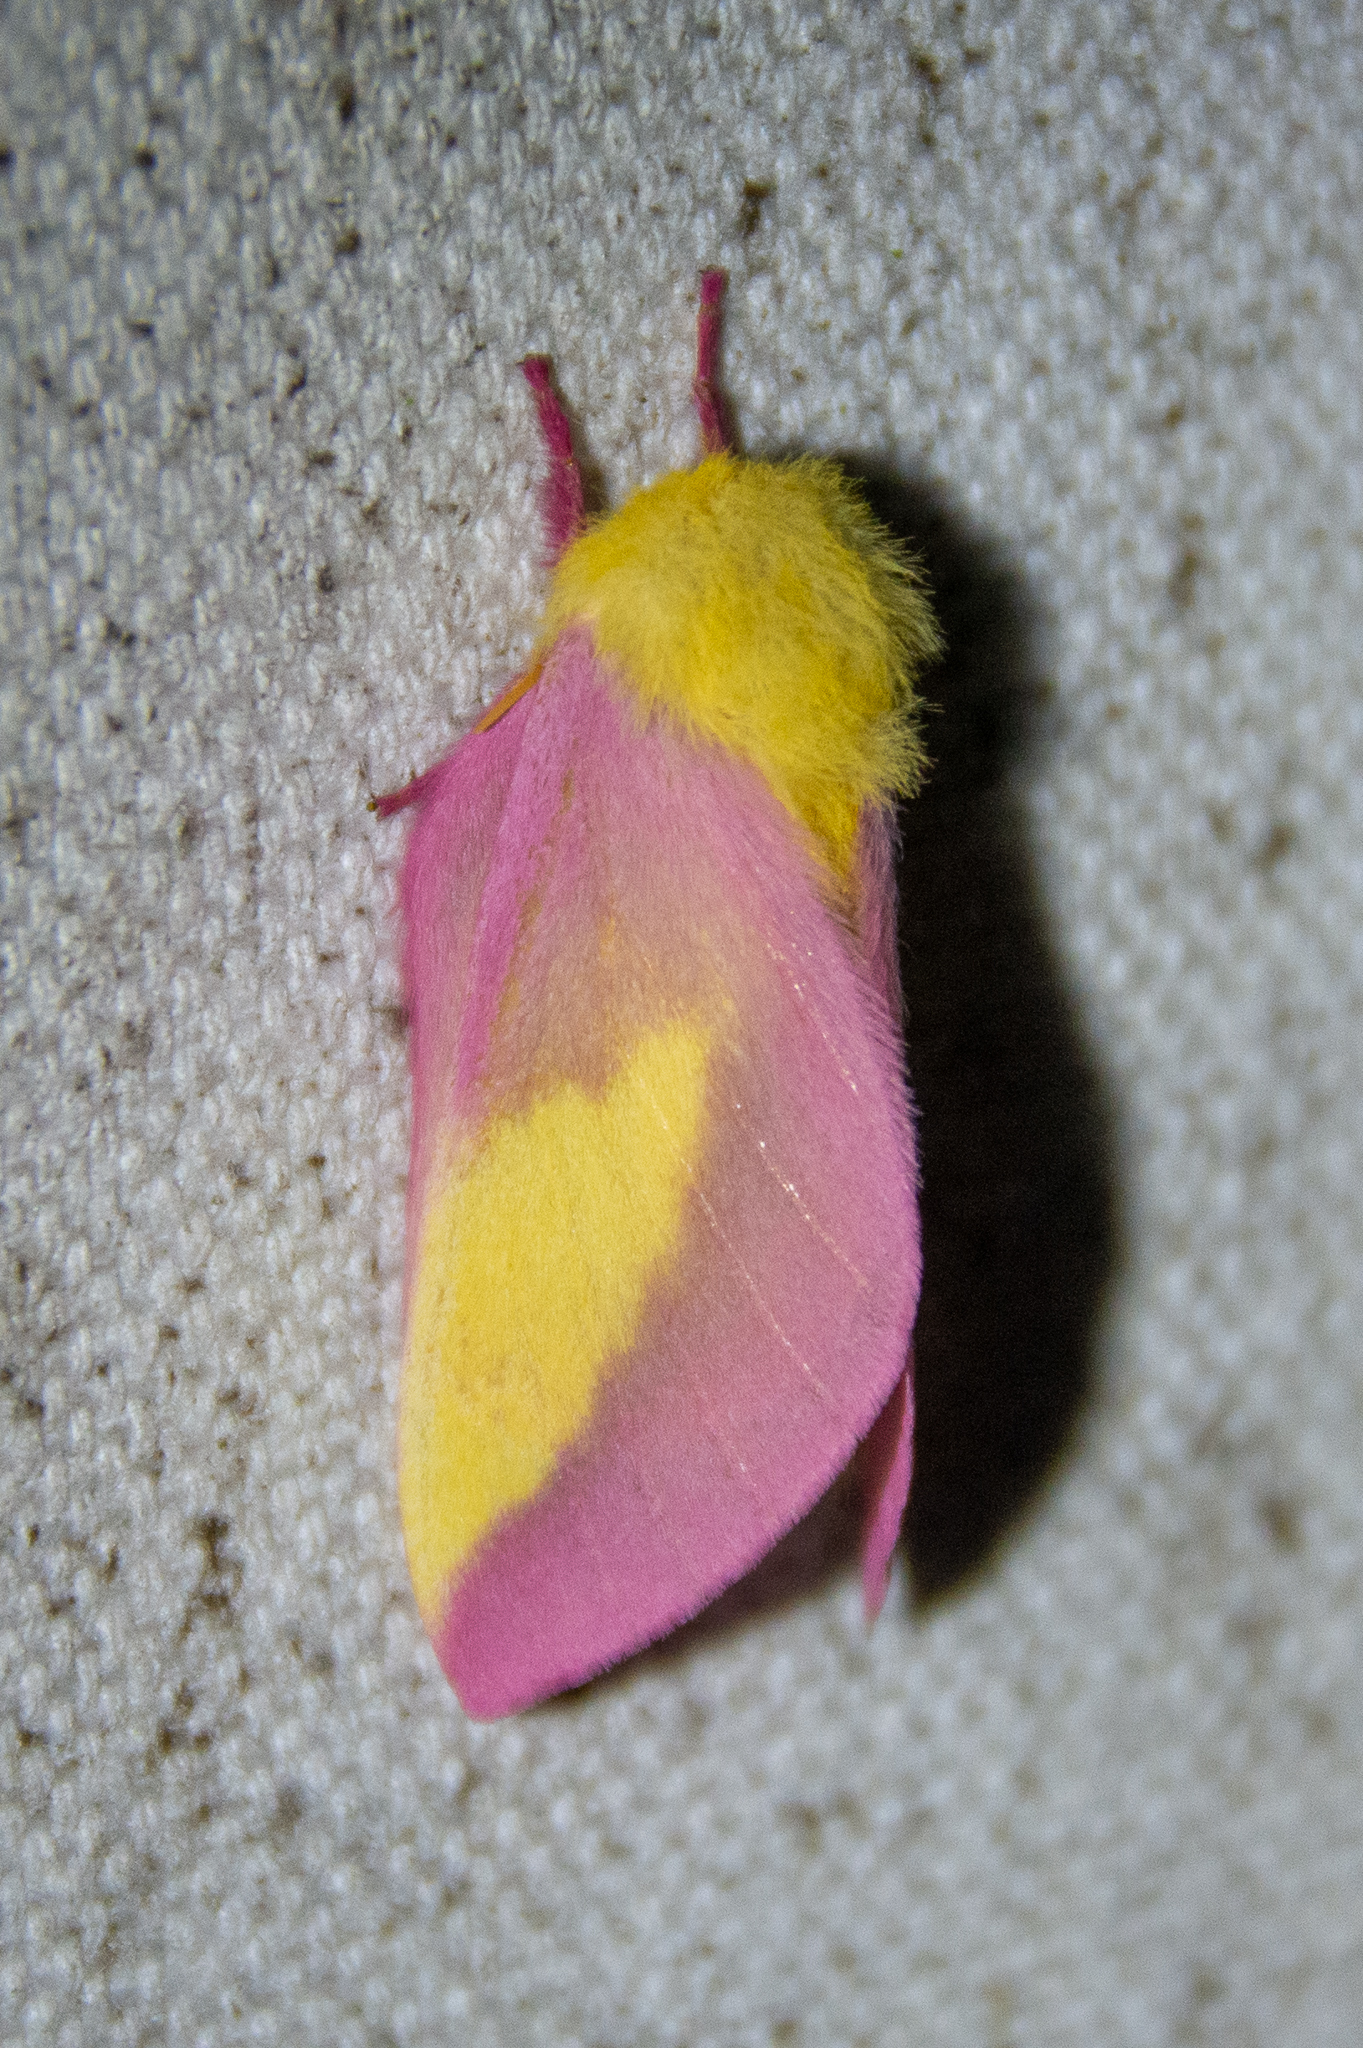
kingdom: Animalia
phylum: Arthropoda
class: Insecta
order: Lepidoptera
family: Saturniidae
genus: Dryocampa
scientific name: Dryocampa rubicunda
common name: Rosy maple moth
